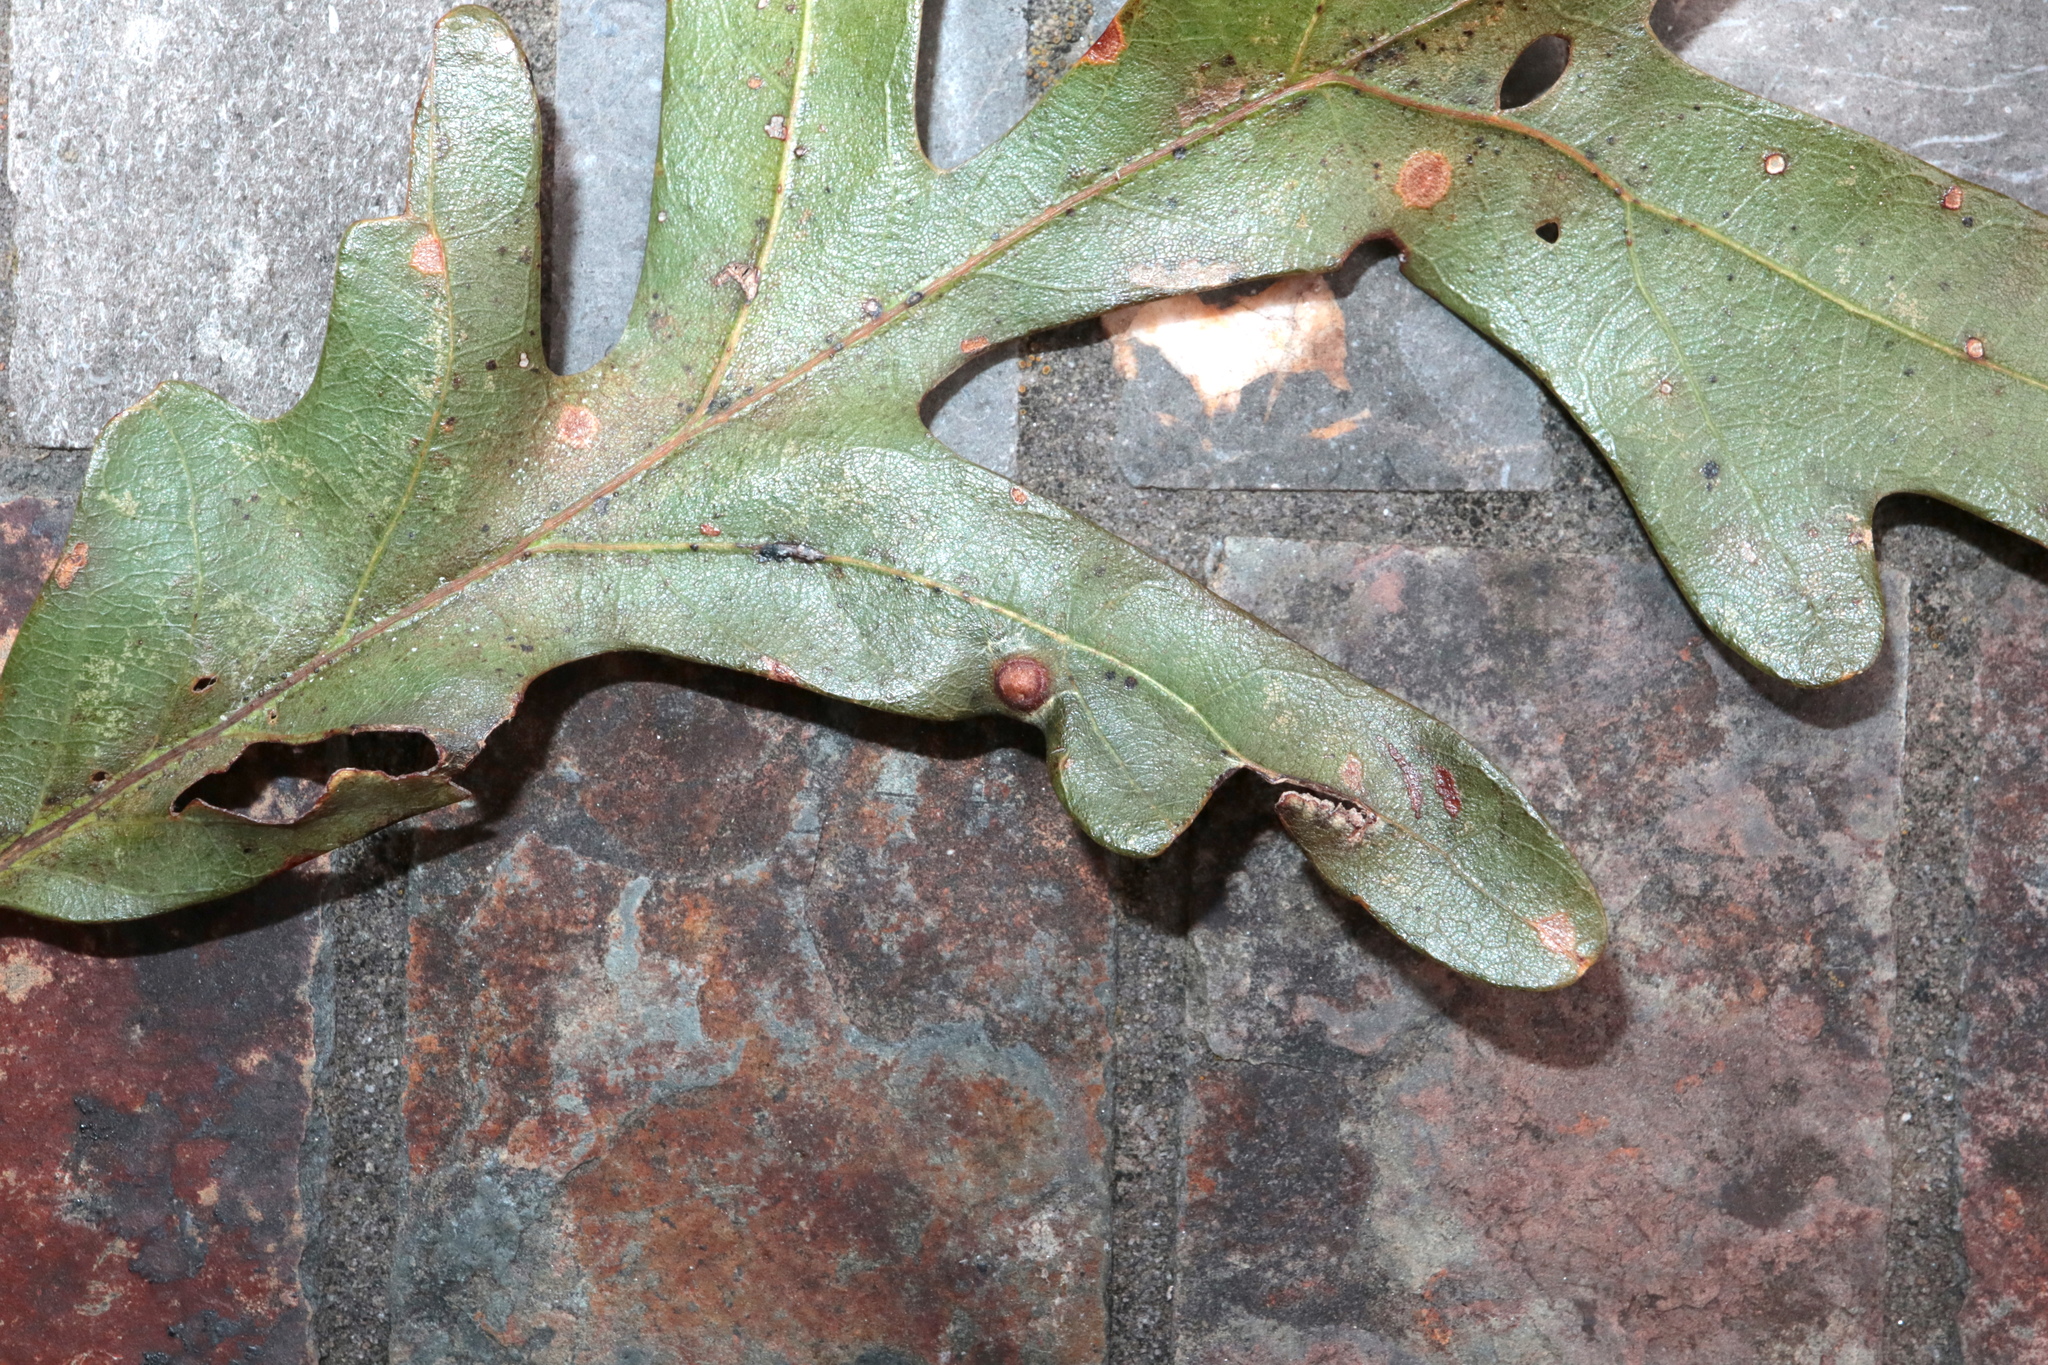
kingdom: Animalia
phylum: Arthropoda
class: Insecta
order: Hymenoptera
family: Cynipidae
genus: Callirhytis
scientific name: Callirhytis
